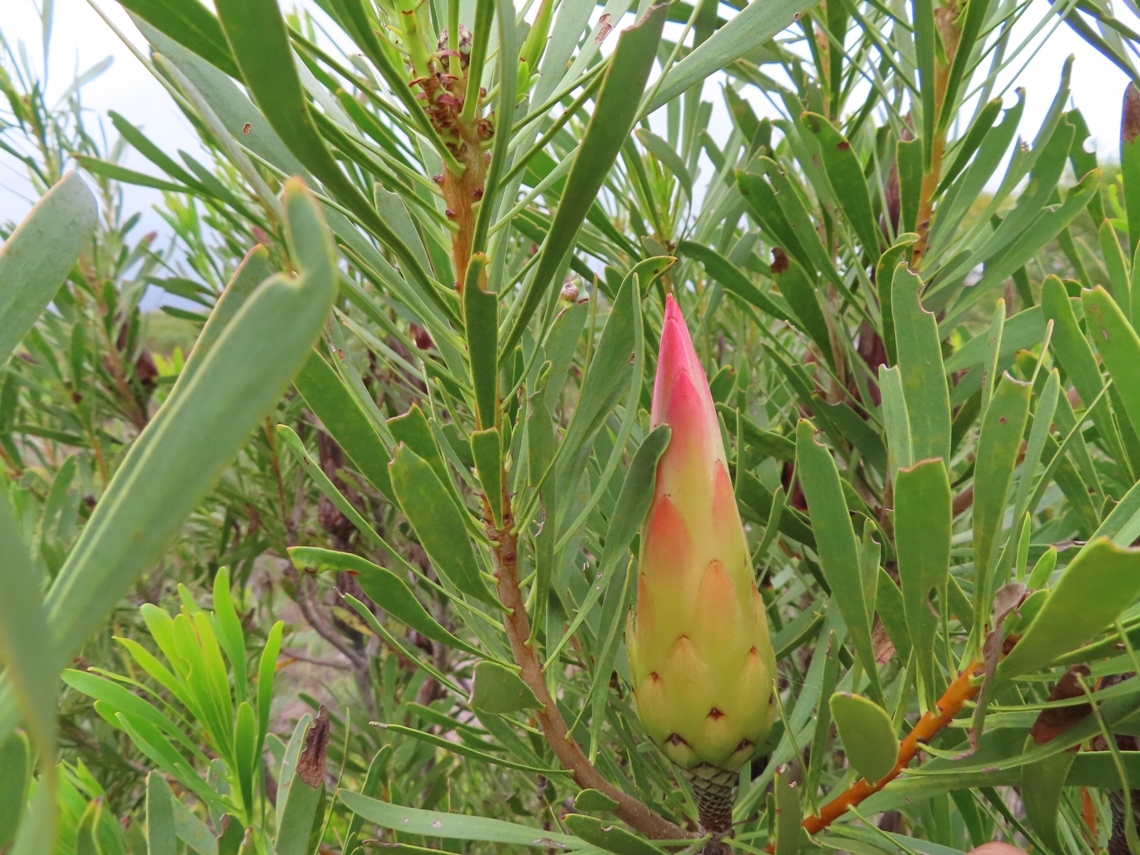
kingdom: Plantae
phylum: Tracheophyta
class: Magnoliopsida
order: Proteales
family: Proteaceae
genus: Protea
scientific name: Protea repens
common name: Sugarbush
